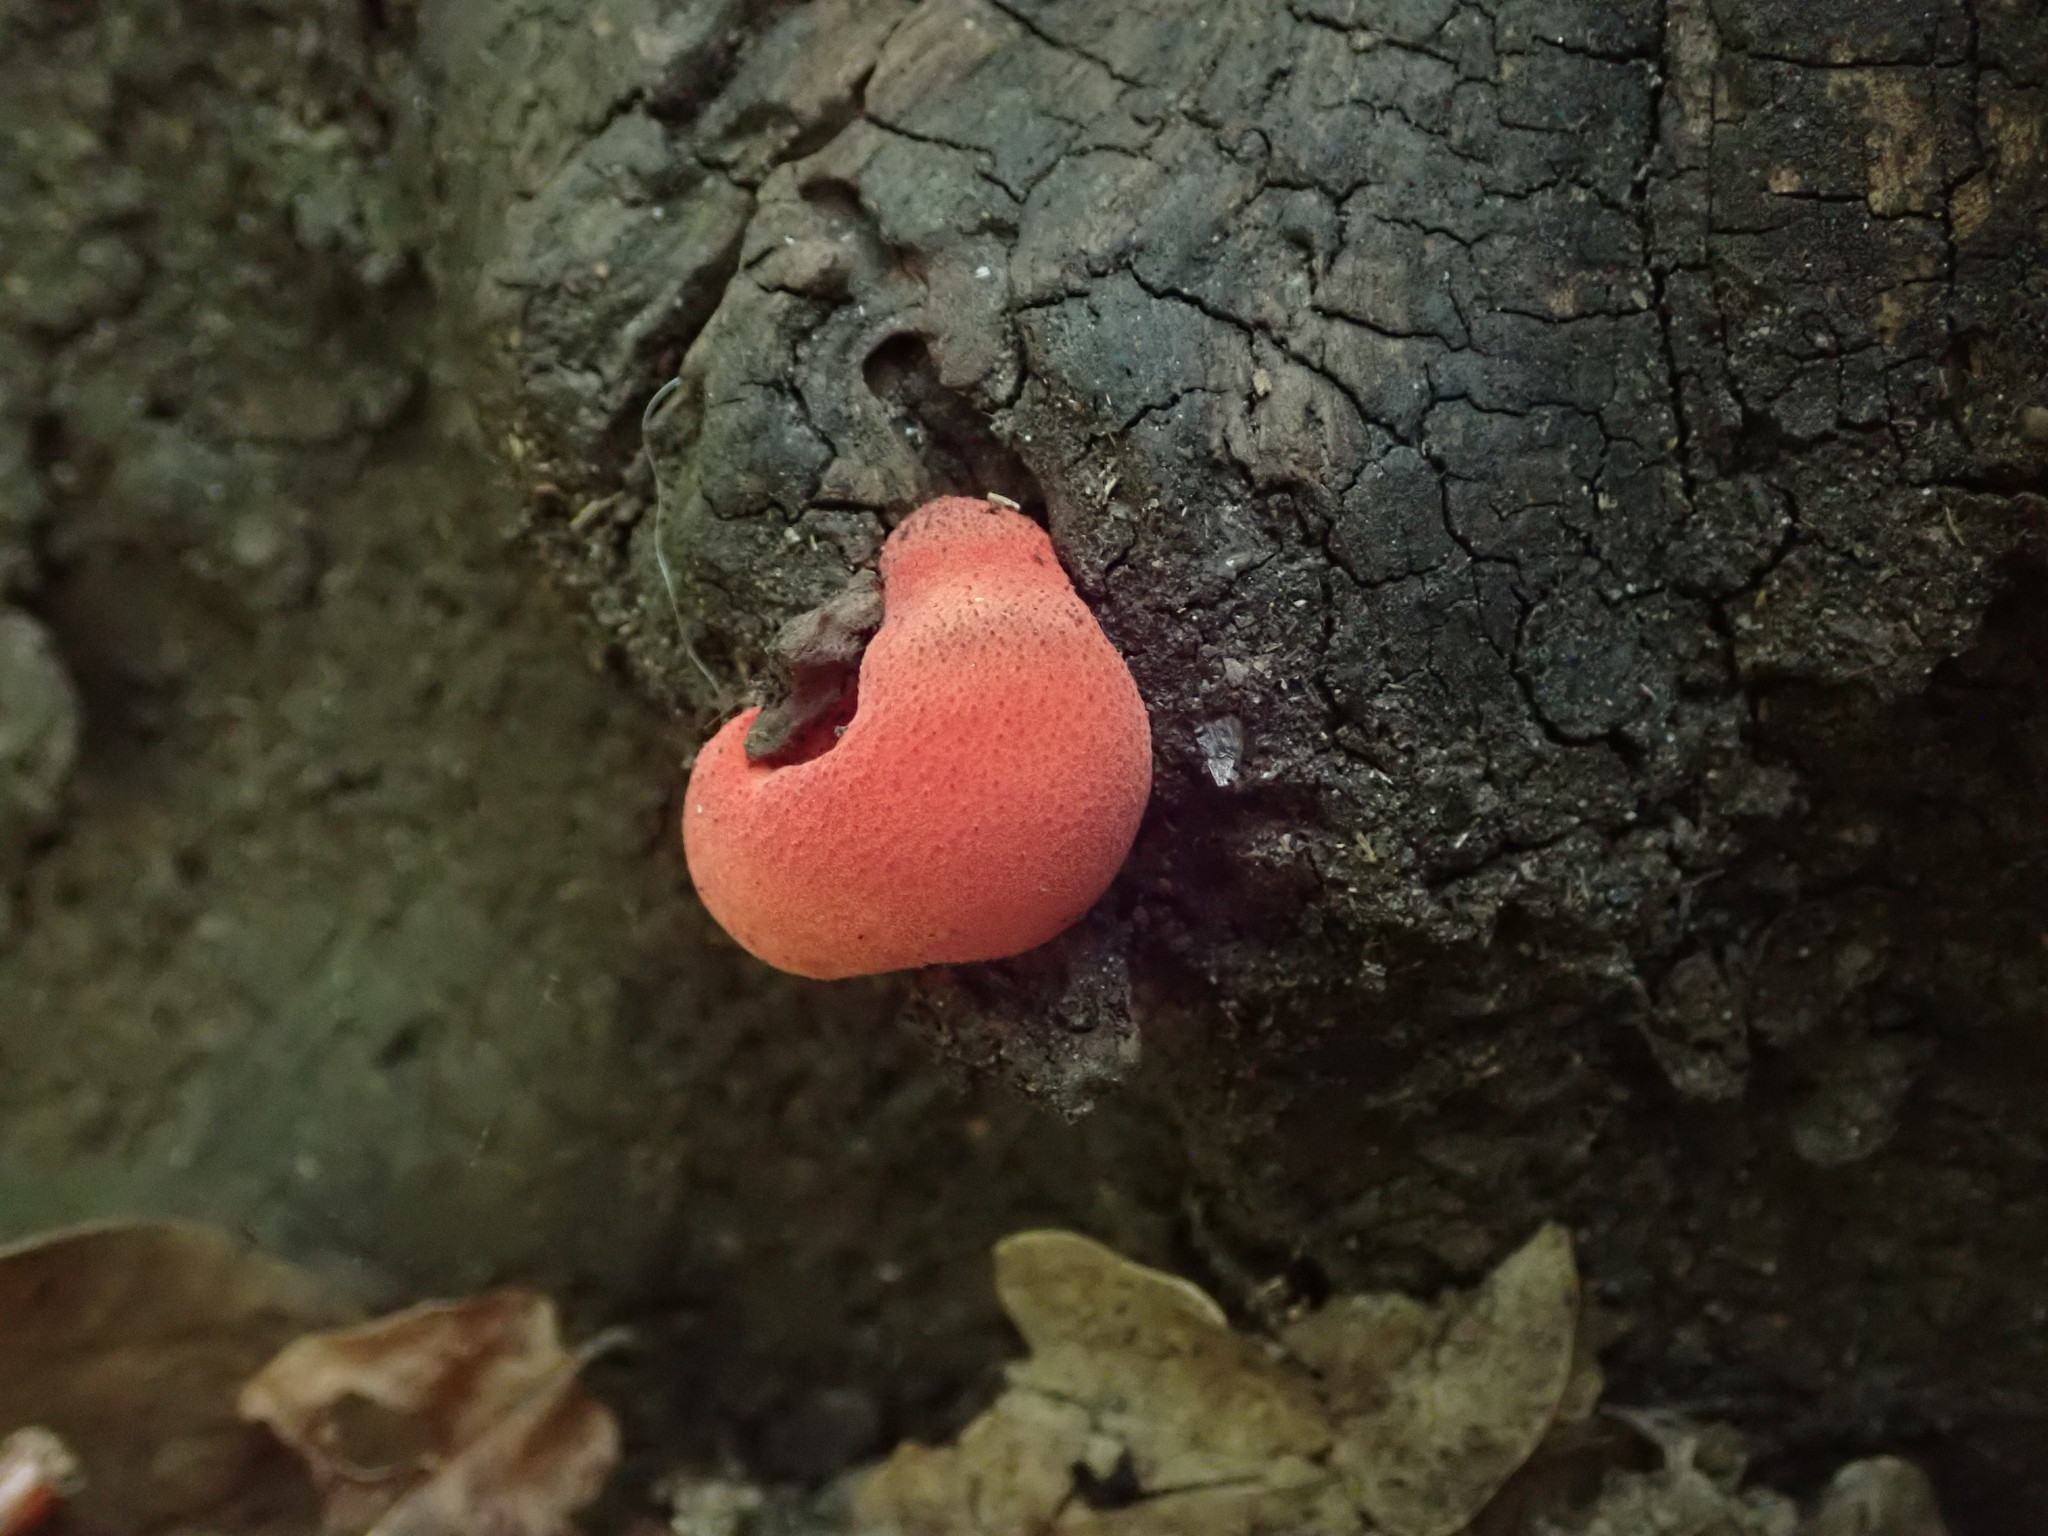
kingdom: Fungi
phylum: Basidiomycota
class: Agaricomycetes
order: Agaricales
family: Fistulinaceae
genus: Fistulina
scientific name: Fistulina hepatica
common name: Beef-steak fungus
